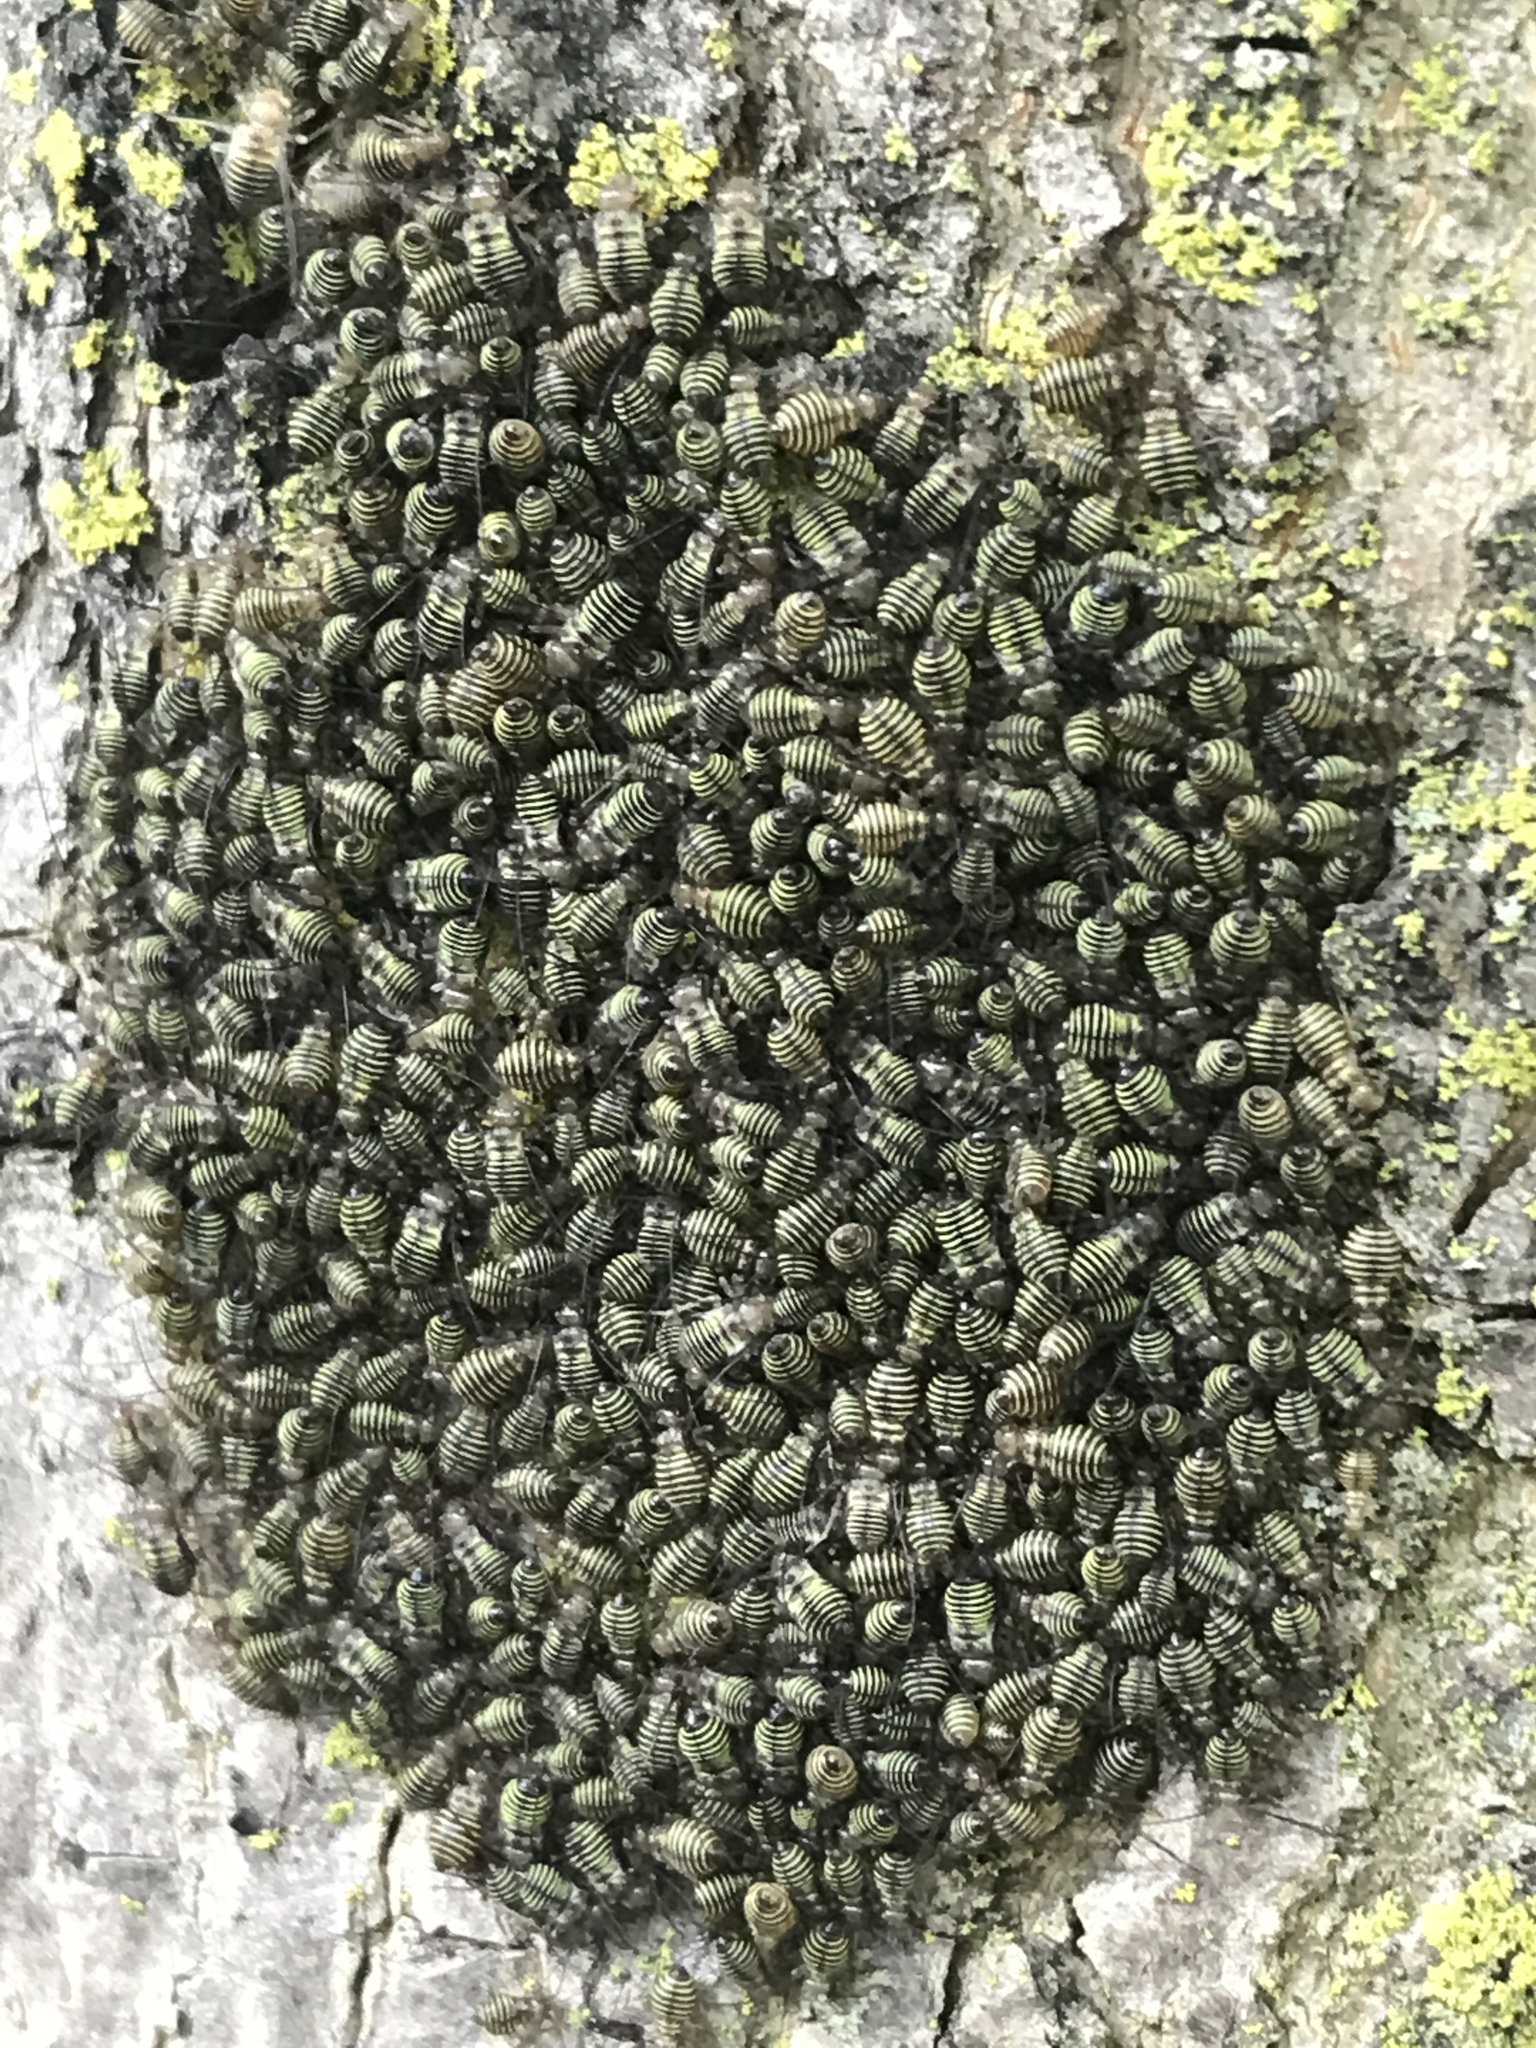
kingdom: Animalia
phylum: Arthropoda
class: Insecta
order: Psocodea
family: Psocidae
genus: Cerastipsocus
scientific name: Cerastipsocus venosus
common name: Tree cattle
